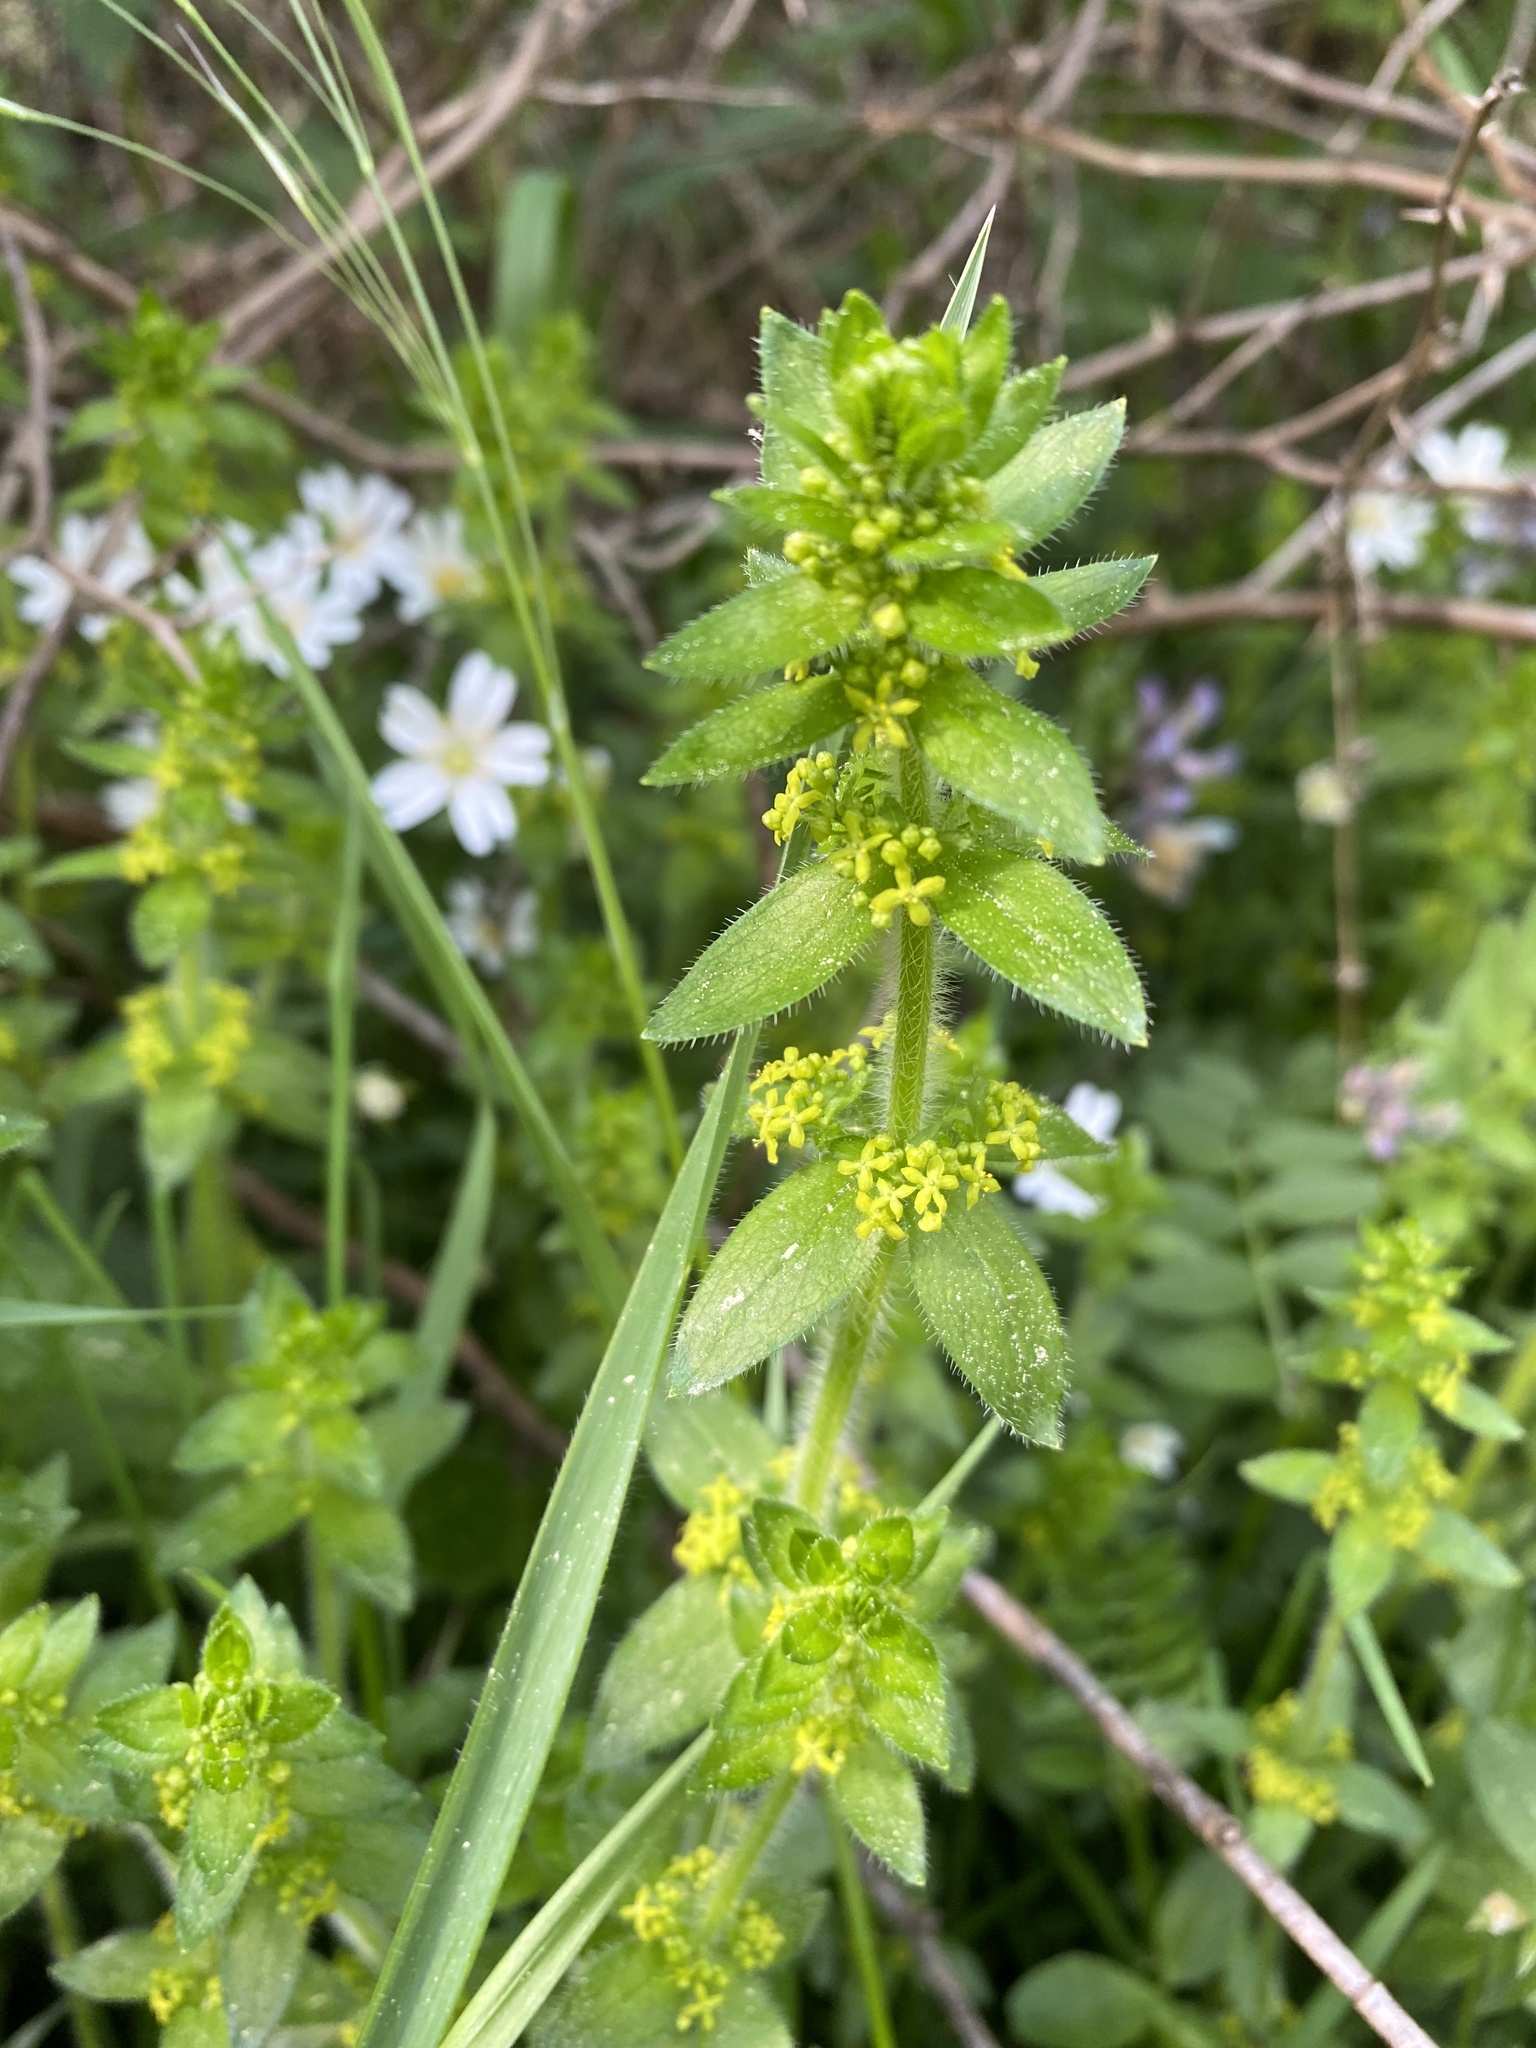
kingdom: Plantae
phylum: Tracheophyta
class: Magnoliopsida
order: Gentianales
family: Rubiaceae
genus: Cruciata
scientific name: Cruciata laevipes
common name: Crosswort
